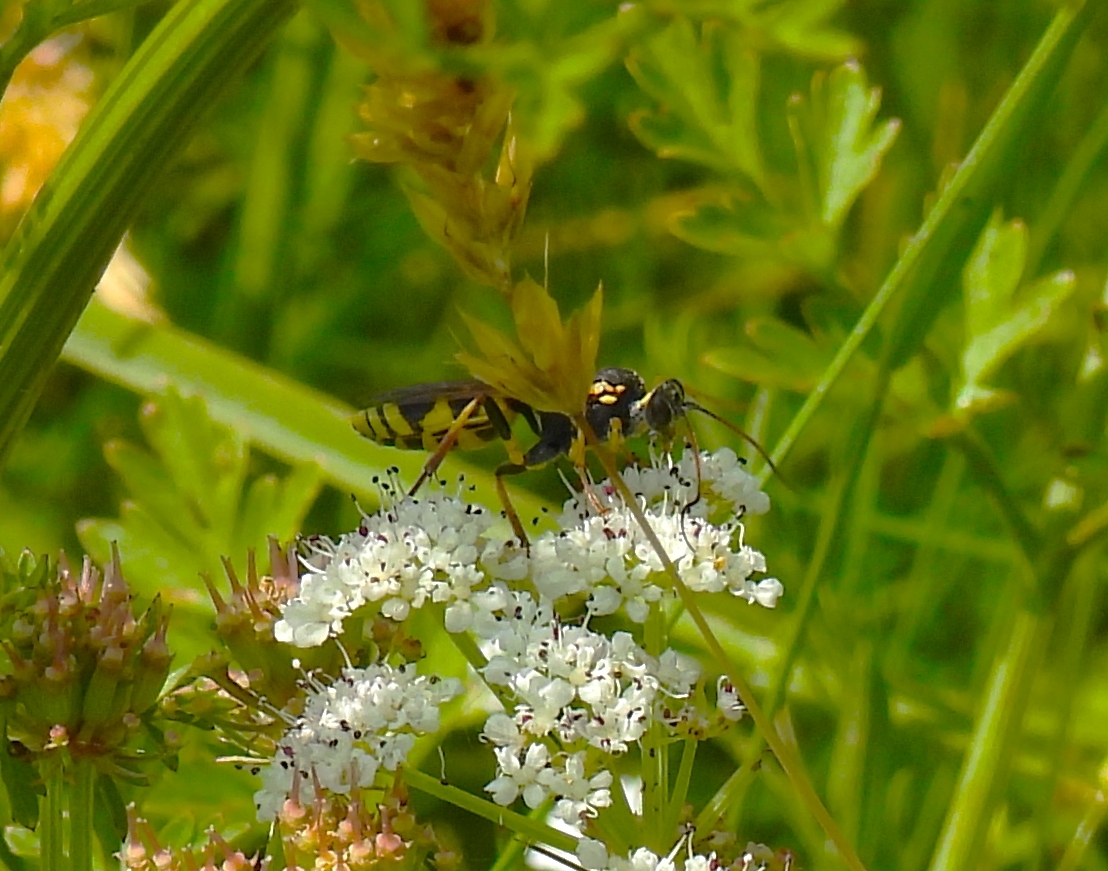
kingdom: Animalia
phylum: Arthropoda
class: Insecta
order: Hymenoptera
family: Ichneumonidae
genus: Amblyteles
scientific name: Amblyteles armatorius
